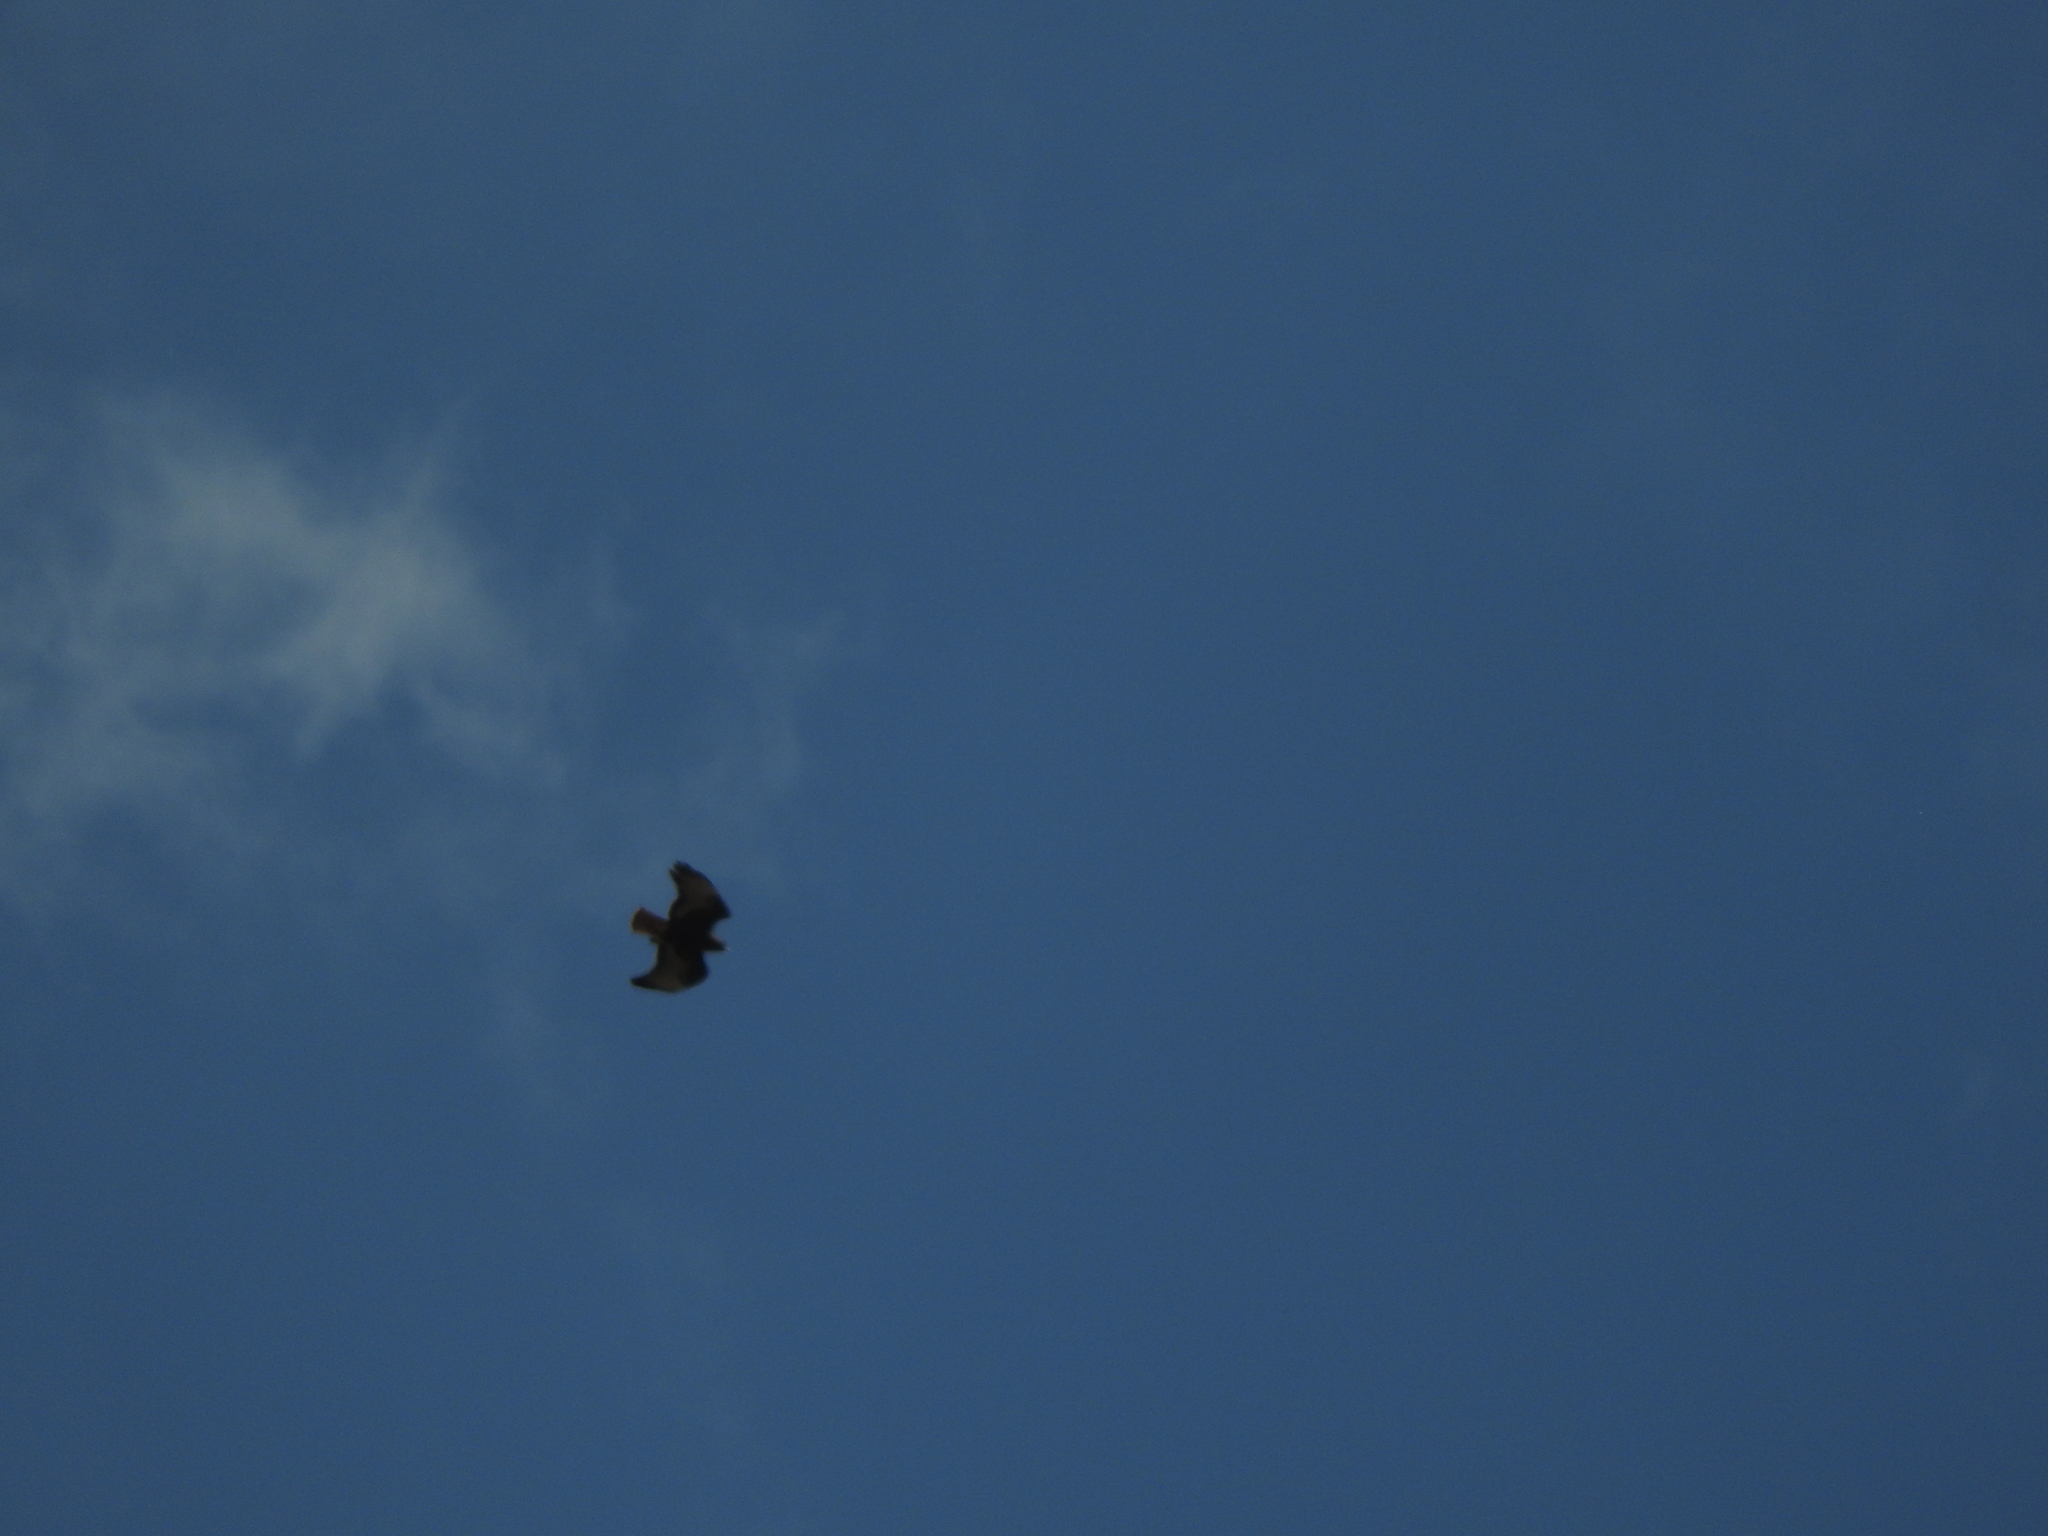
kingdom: Animalia
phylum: Chordata
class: Aves
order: Accipitriformes
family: Accipitridae
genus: Buteo
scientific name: Buteo jamaicensis
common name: Red-tailed hawk
